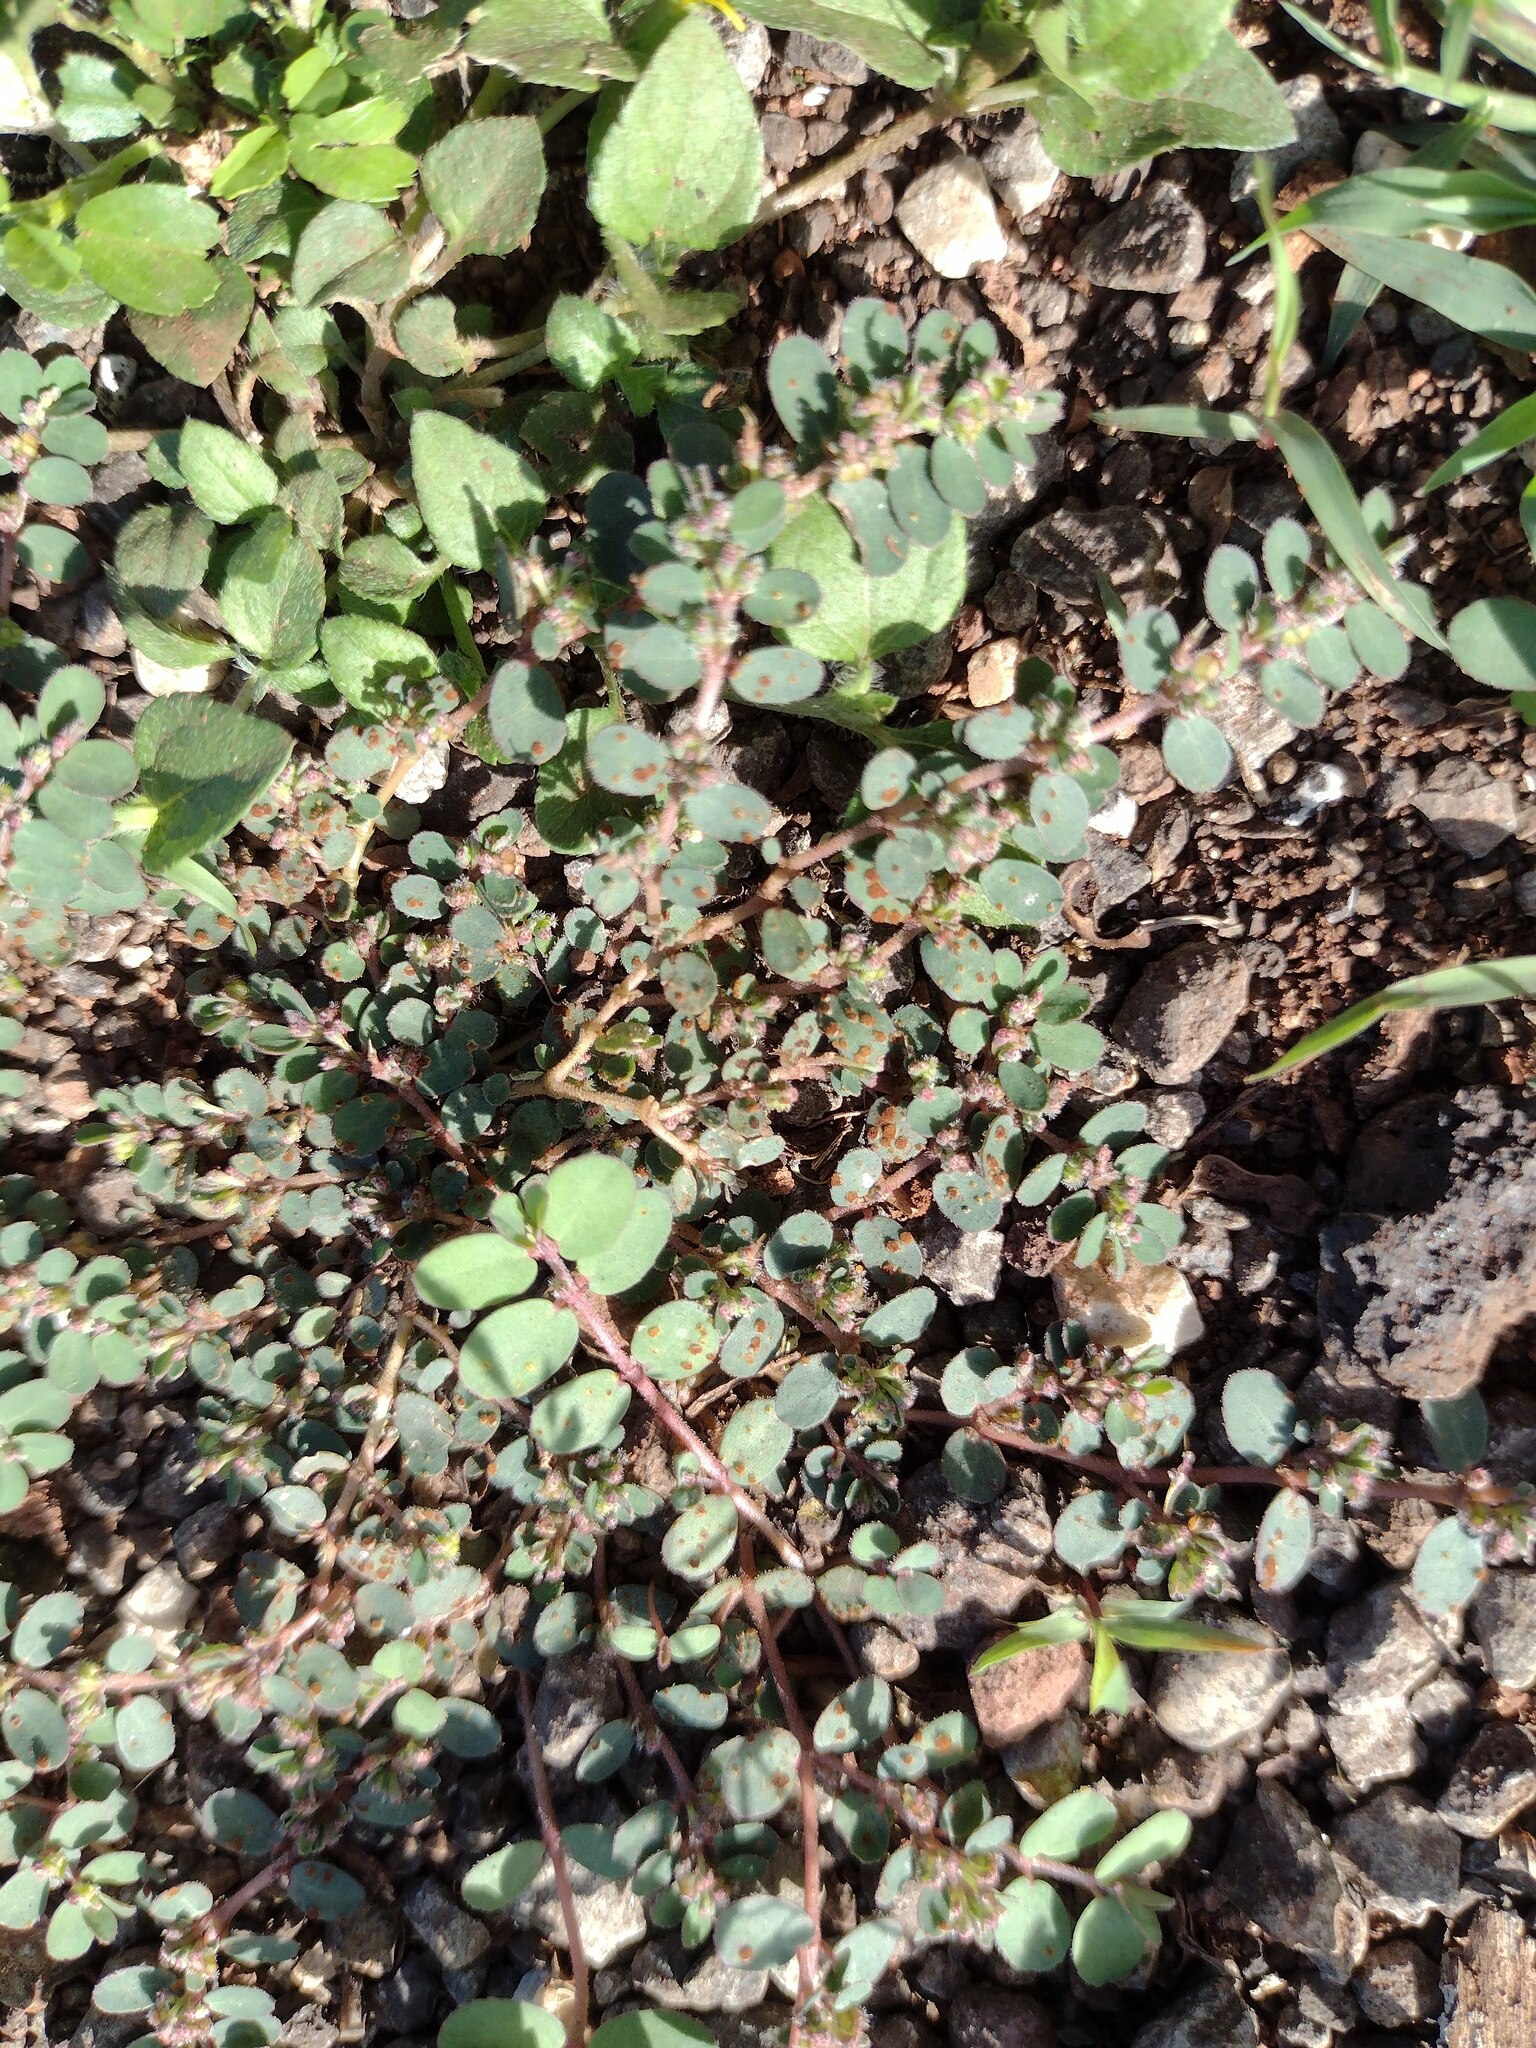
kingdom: Plantae
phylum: Tracheophyta
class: Magnoliopsida
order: Malpighiales
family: Euphorbiaceae
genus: Euphorbia
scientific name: Euphorbia prostrata
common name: Prostrate sandmat
